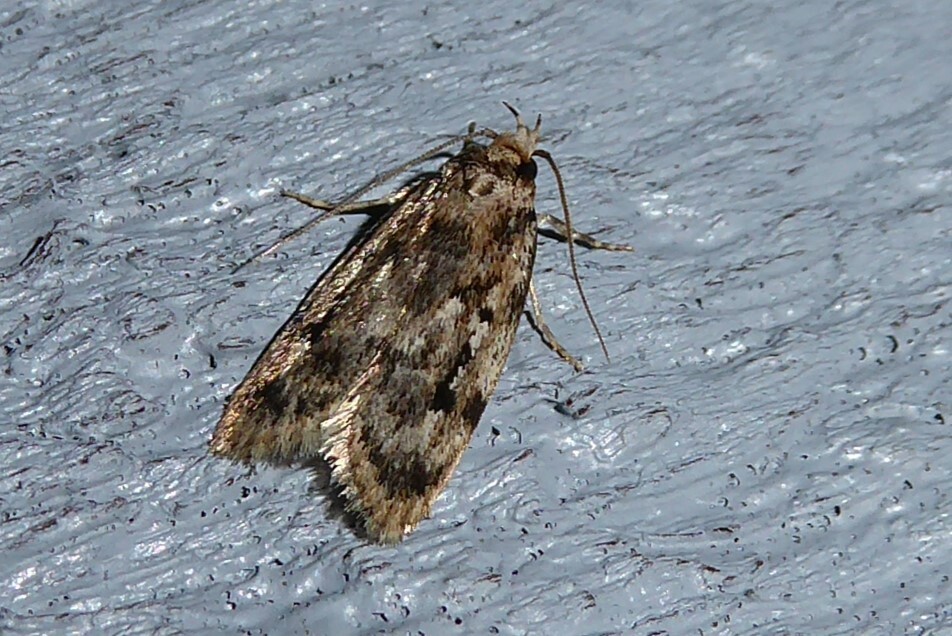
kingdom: Animalia
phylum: Arthropoda
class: Insecta
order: Lepidoptera
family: Oecophoridae
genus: Barea
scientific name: Barea exarcha
